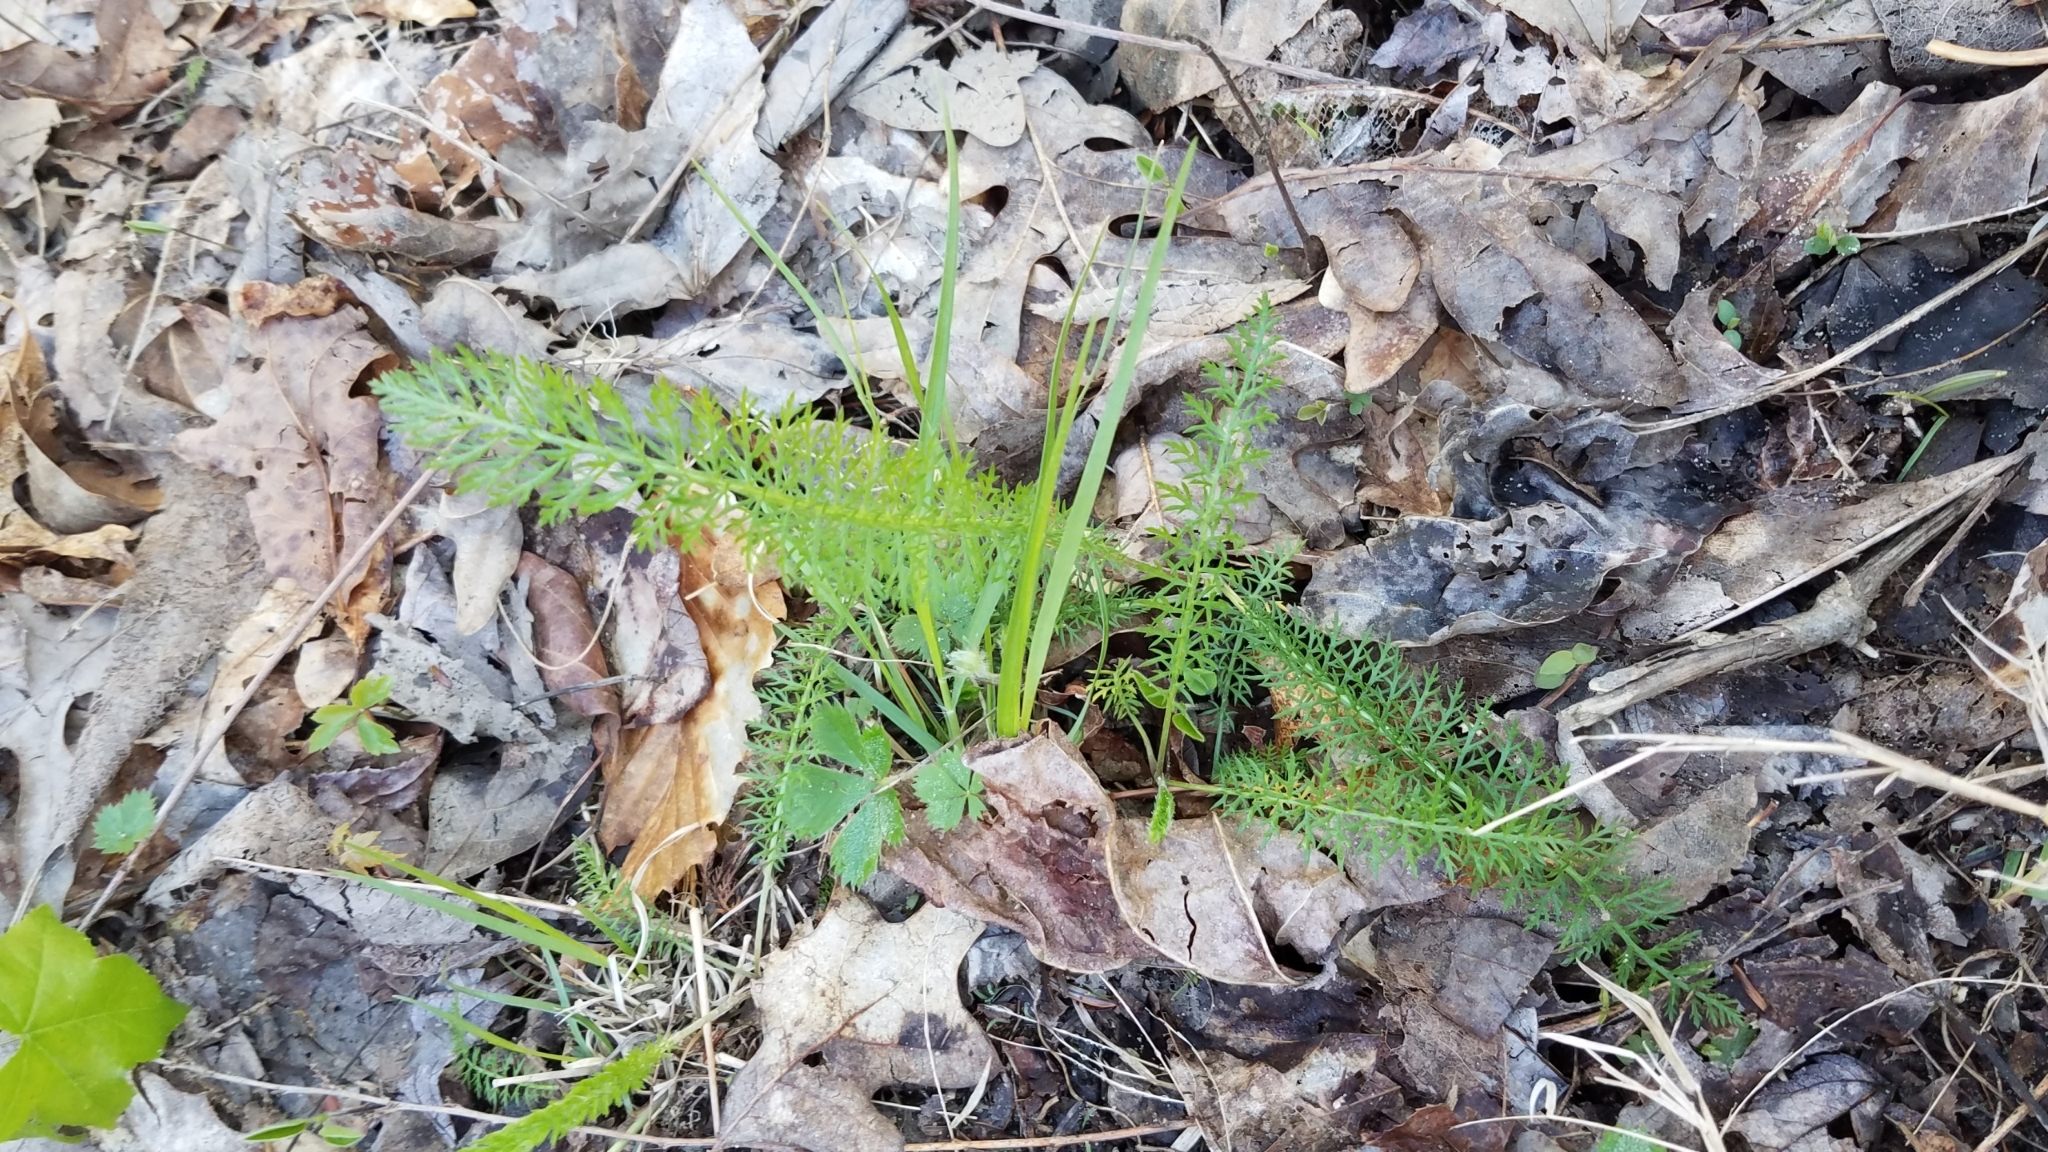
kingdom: Plantae
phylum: Tracheophyta
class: Magnoliopsida
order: Asterales
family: Asteraceae
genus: Achillea
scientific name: Achillea millefolium
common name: Yarrow
